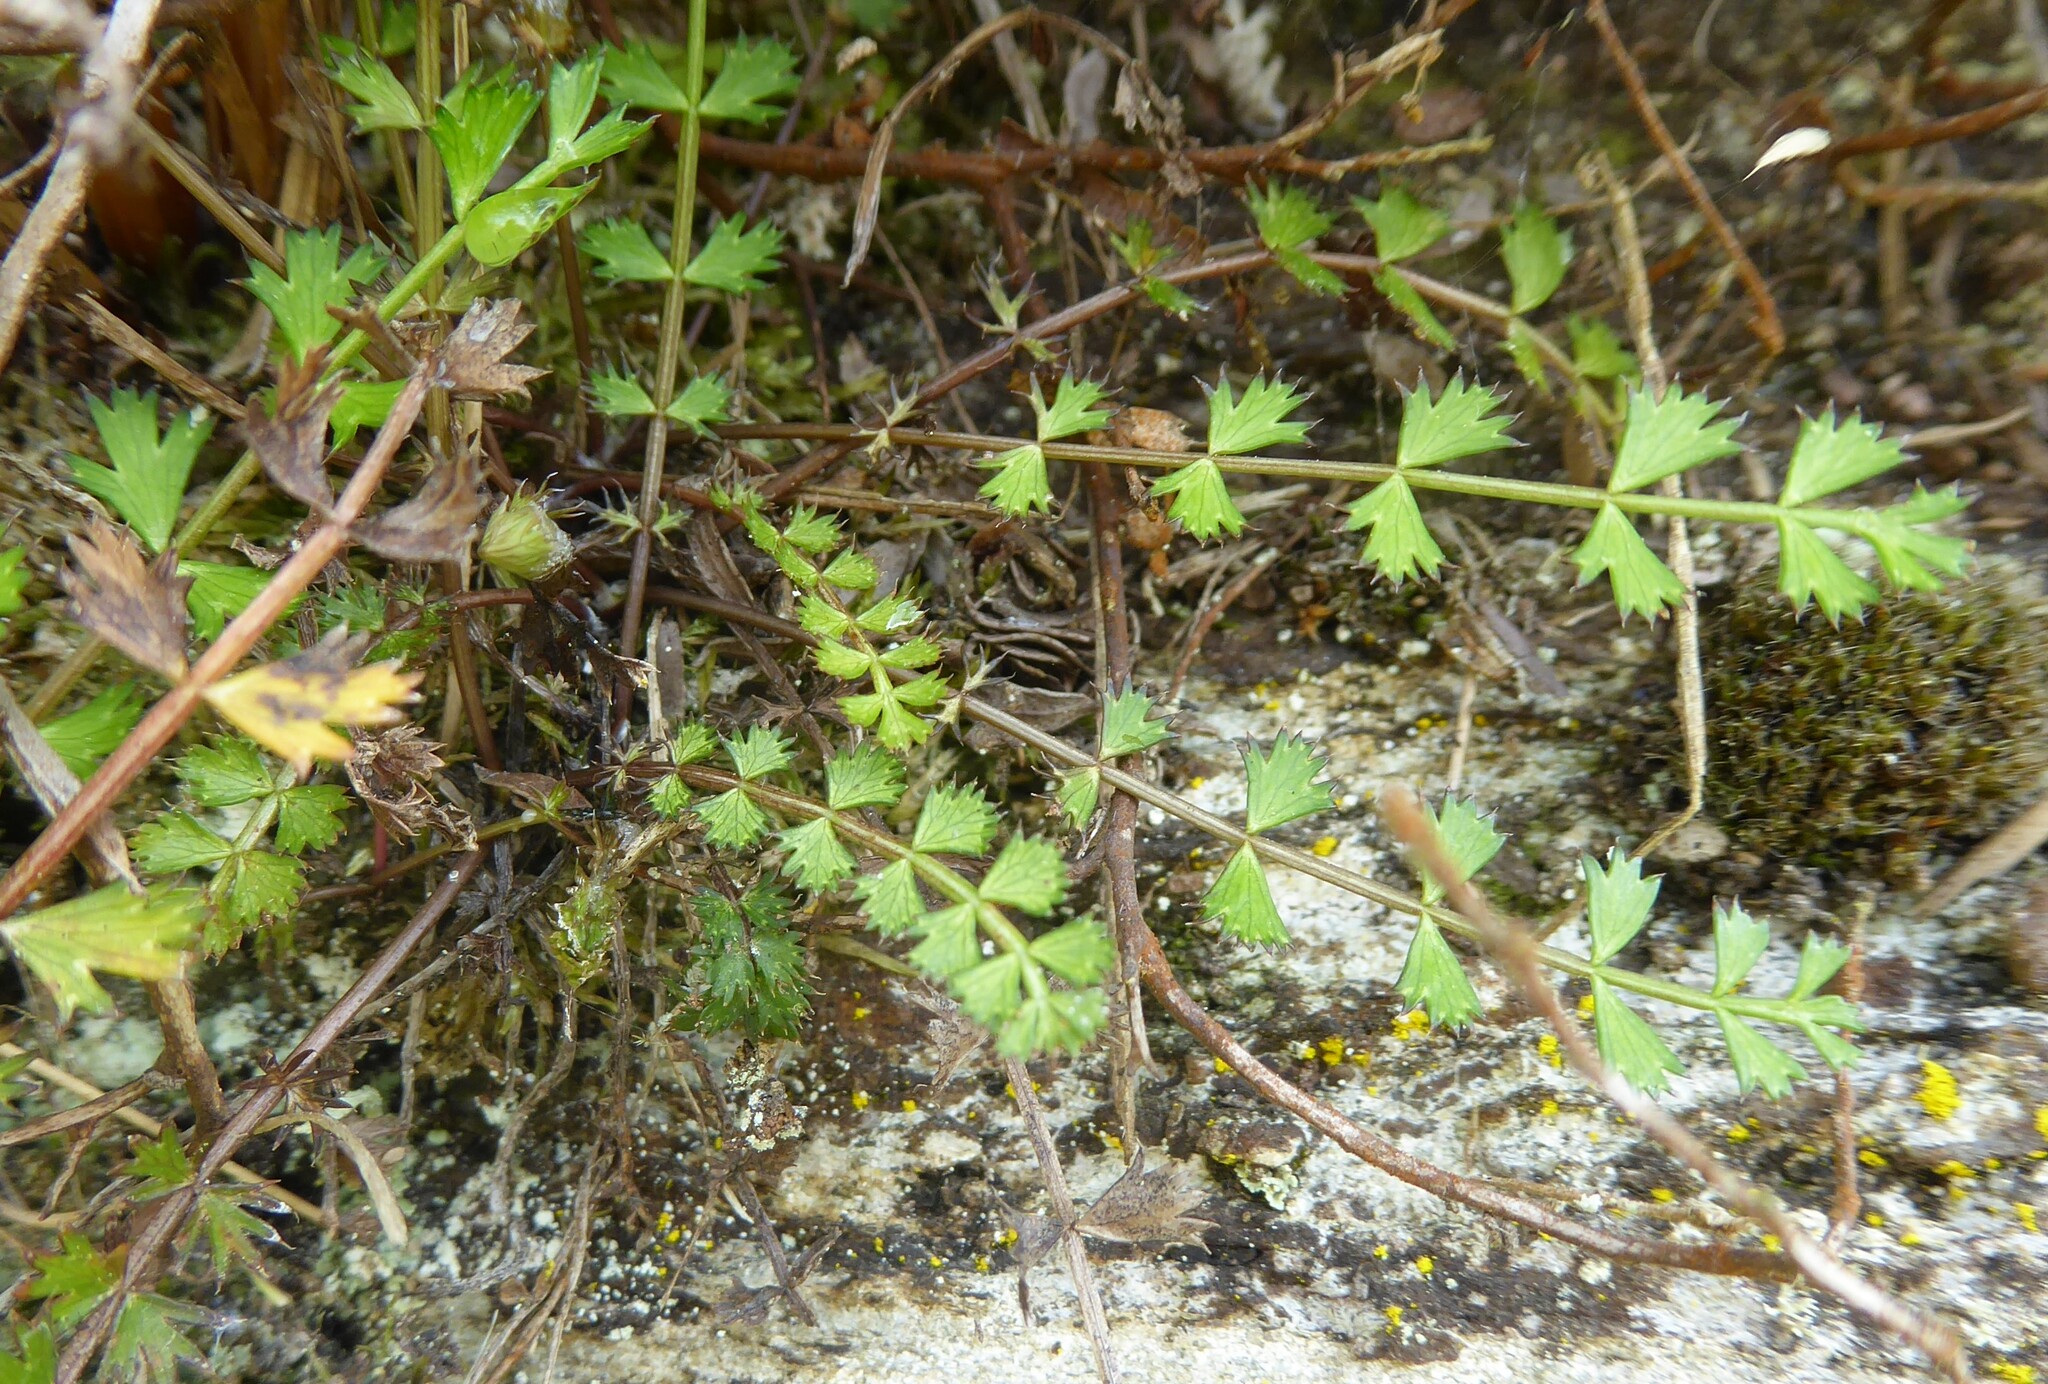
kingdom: Plantae
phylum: Tracheophyta
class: Magnoliopsida
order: Apiales
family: Apiaceae
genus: Anisotome
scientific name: Anisotome aromatica
